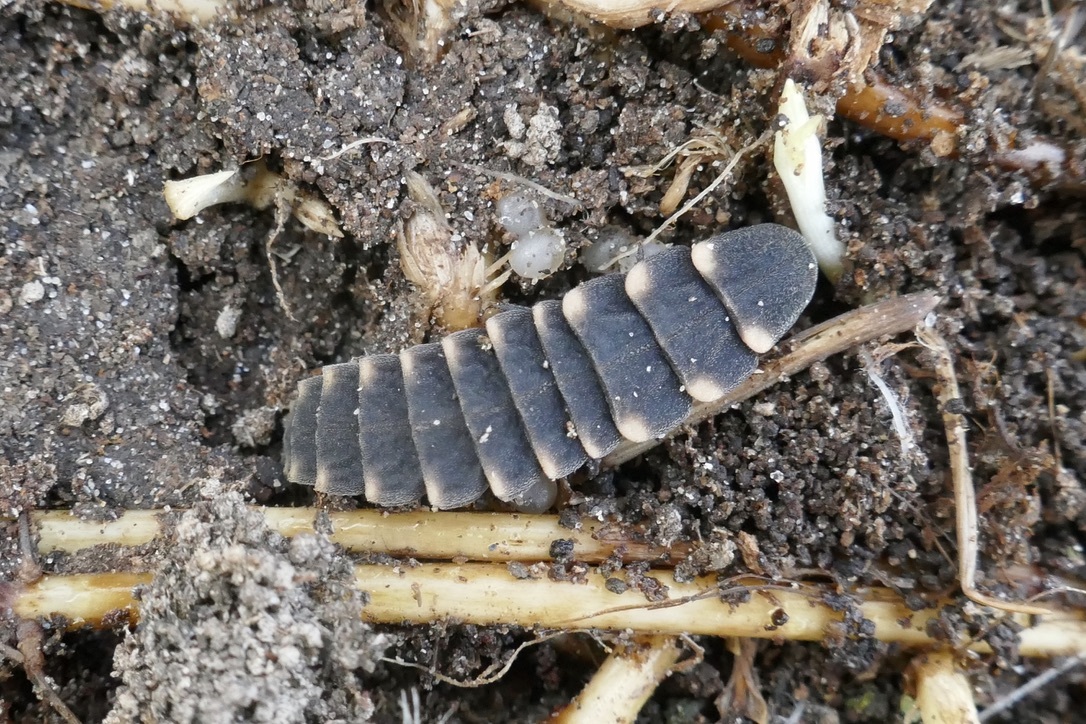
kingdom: Animalia
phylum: Arthropoda
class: Insecta
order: Coleoptera
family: Lampyridae
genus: Lampyris
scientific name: Lampyris noctiluca
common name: Glow-worm
